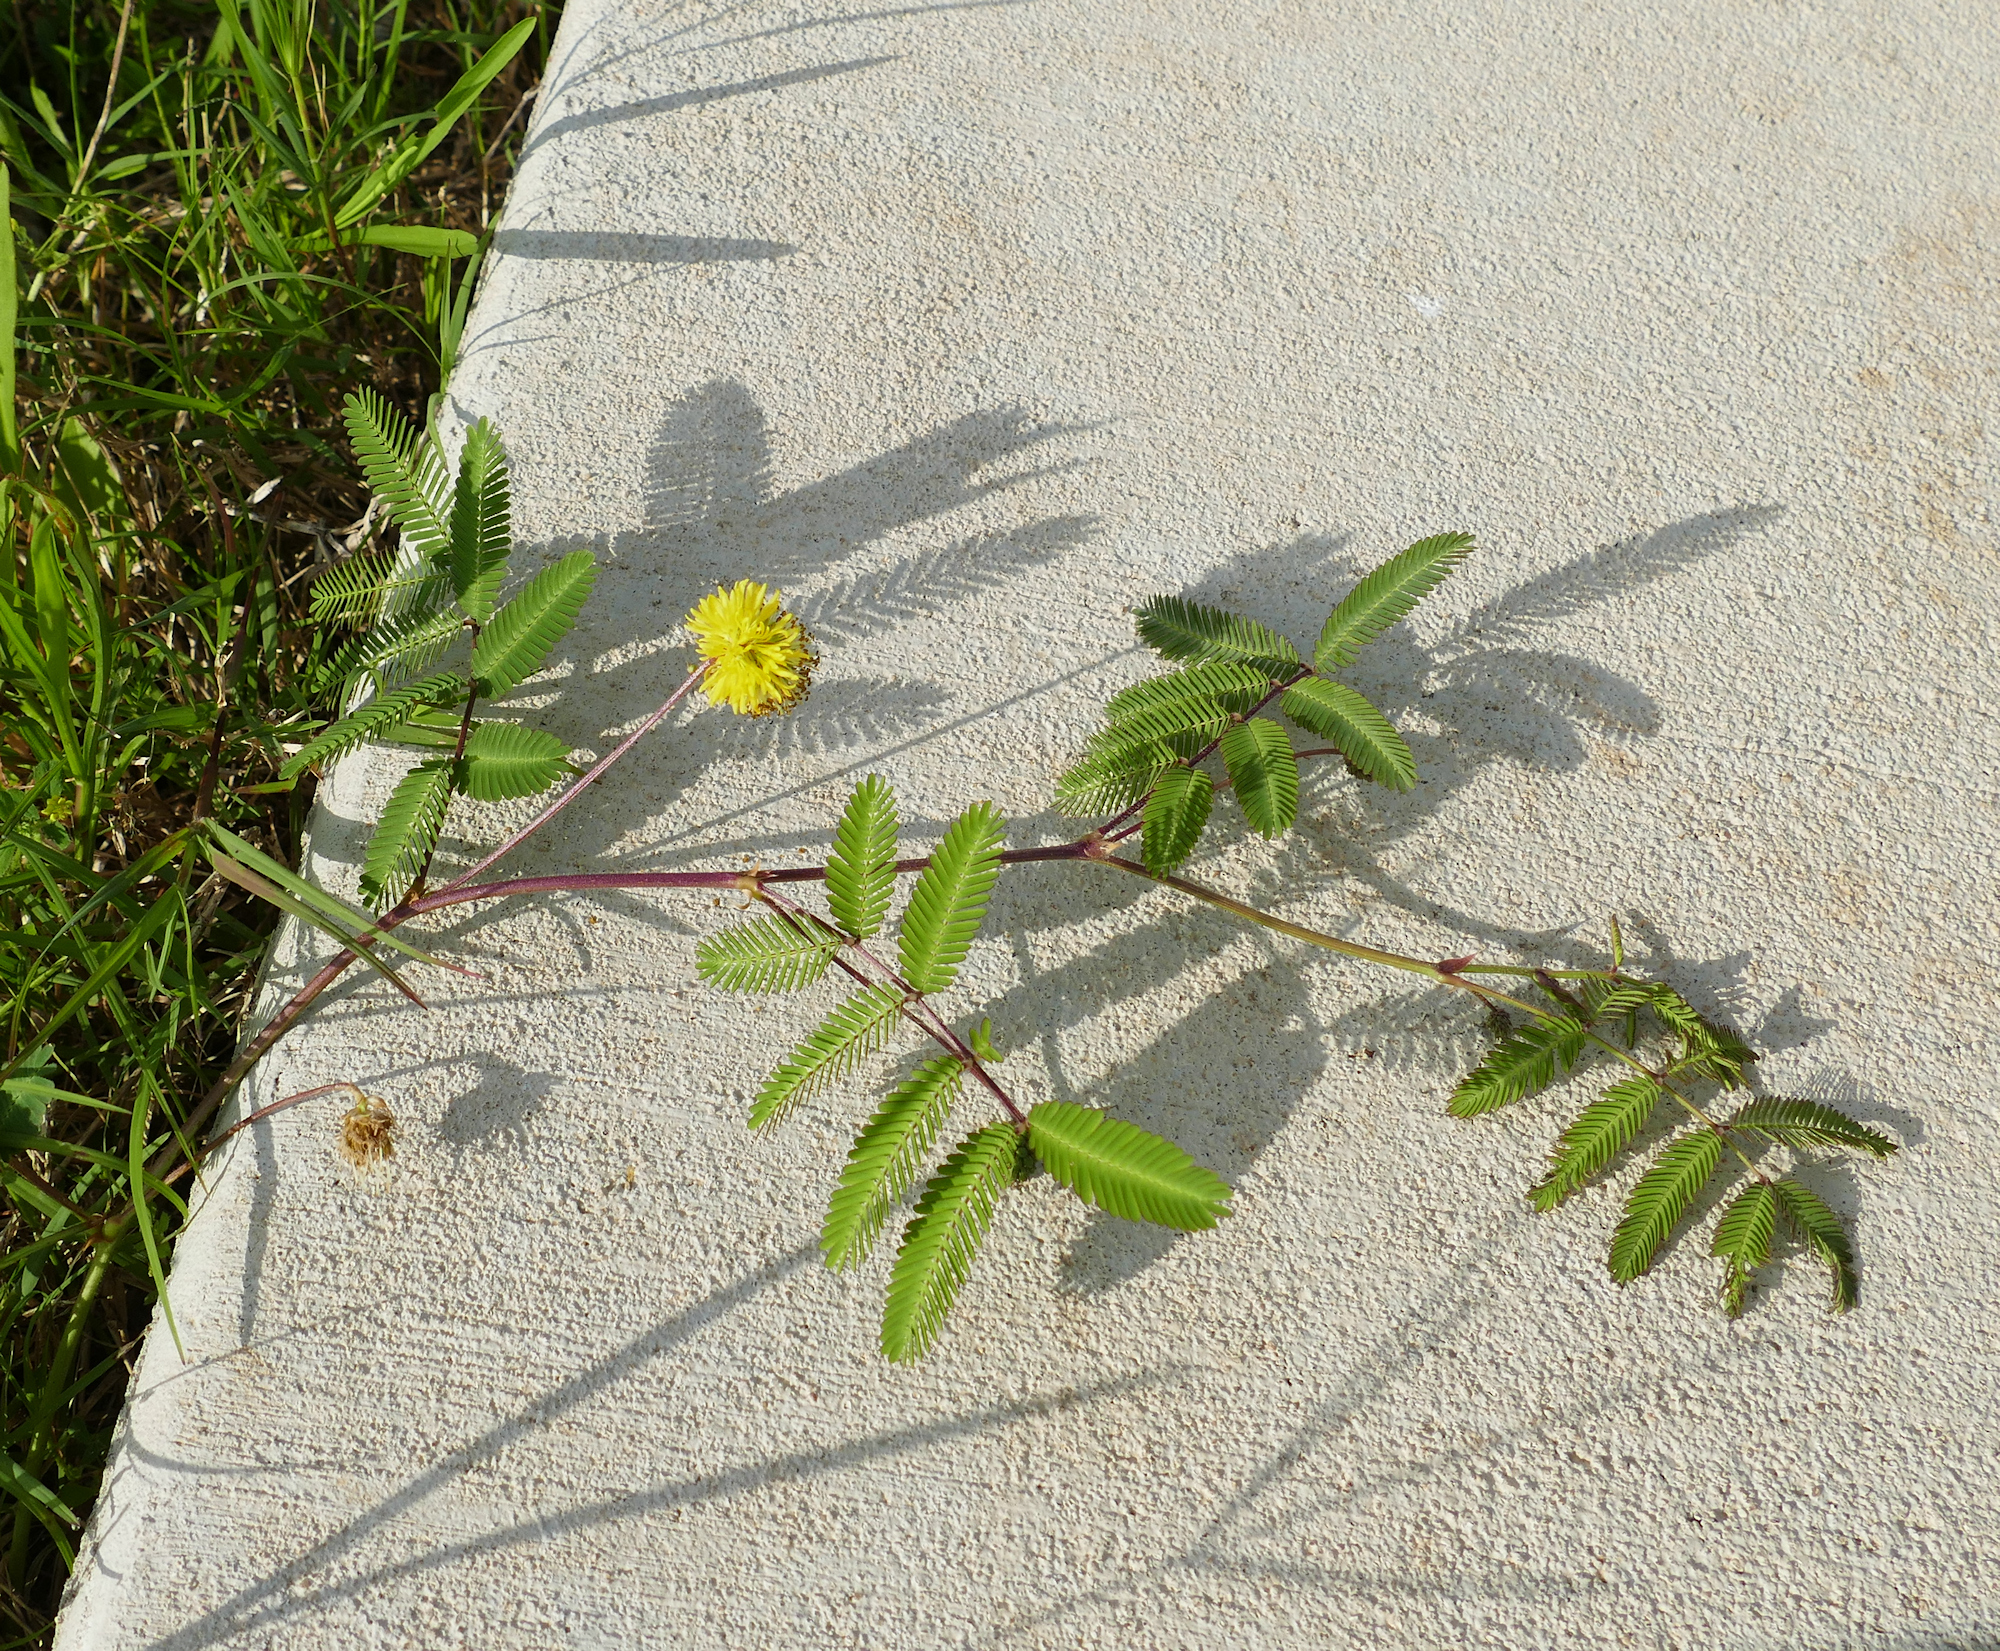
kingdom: Plantae
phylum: Tracheophyta
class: Magnoliopsida
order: Fabales
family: Fabaceae
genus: Neptunia
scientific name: Neptunia pubescens
